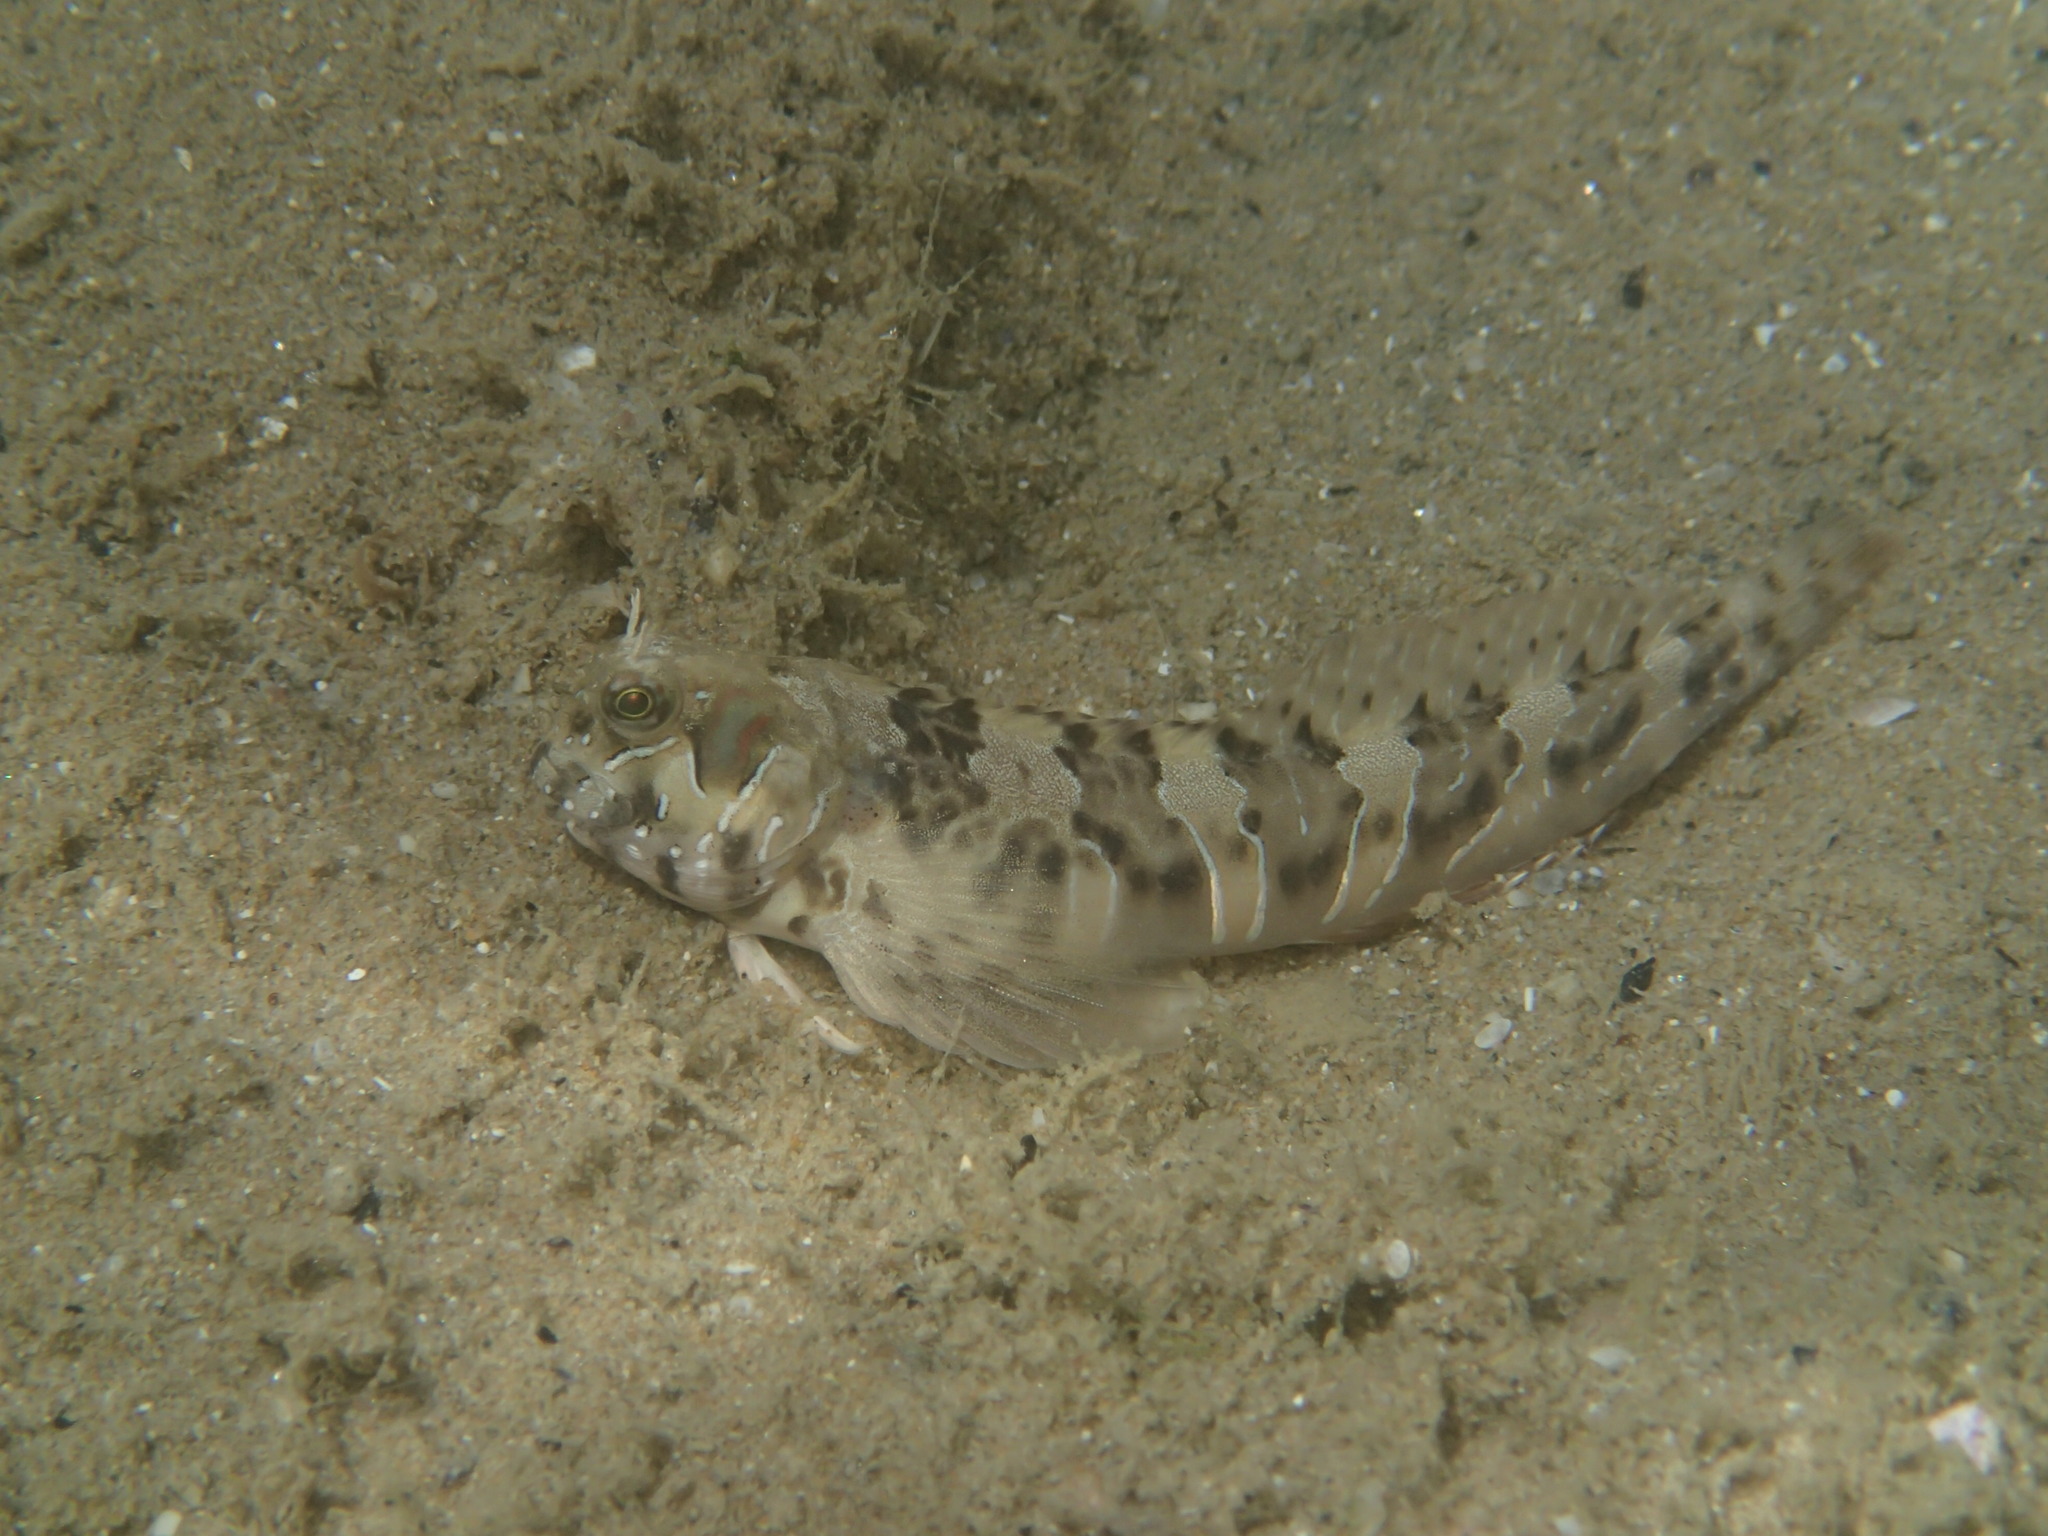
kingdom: Animalia
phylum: Chordata
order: Perciformes
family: Blenniidae
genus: Aidablennius
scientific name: Aidablennius sphynx
